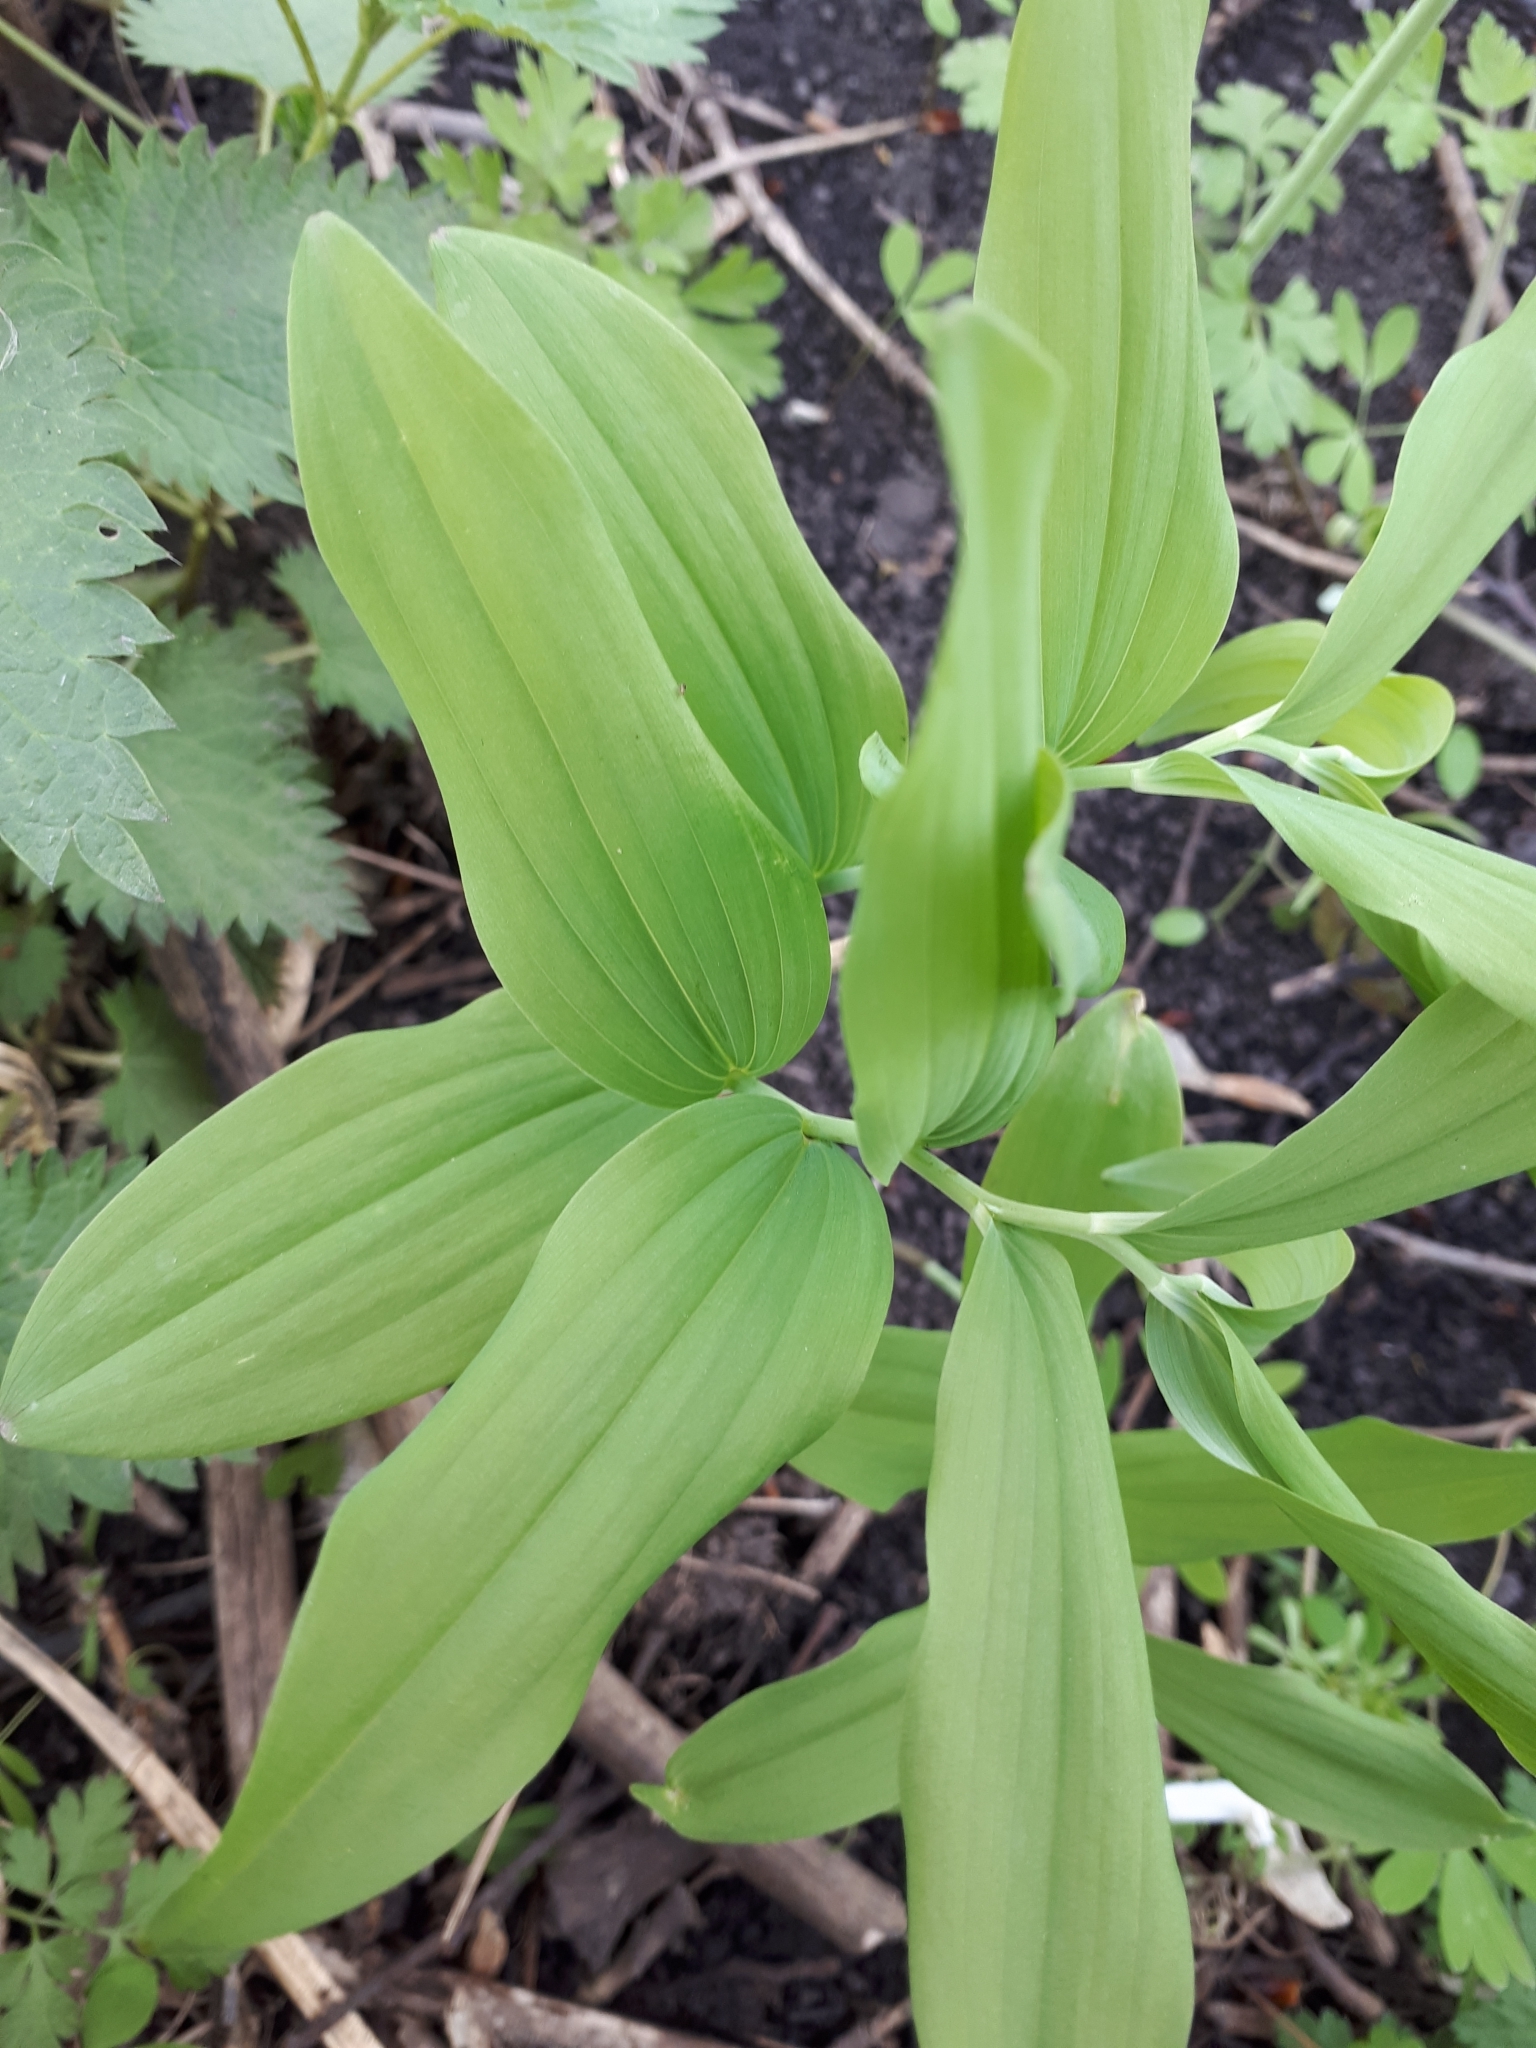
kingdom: Plantae
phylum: Tracheophyta
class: Liliopsida
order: Asparagales
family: Asparagaceae
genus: Polygonatum
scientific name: Polygonatum multiflorum
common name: Solomon's-seal
